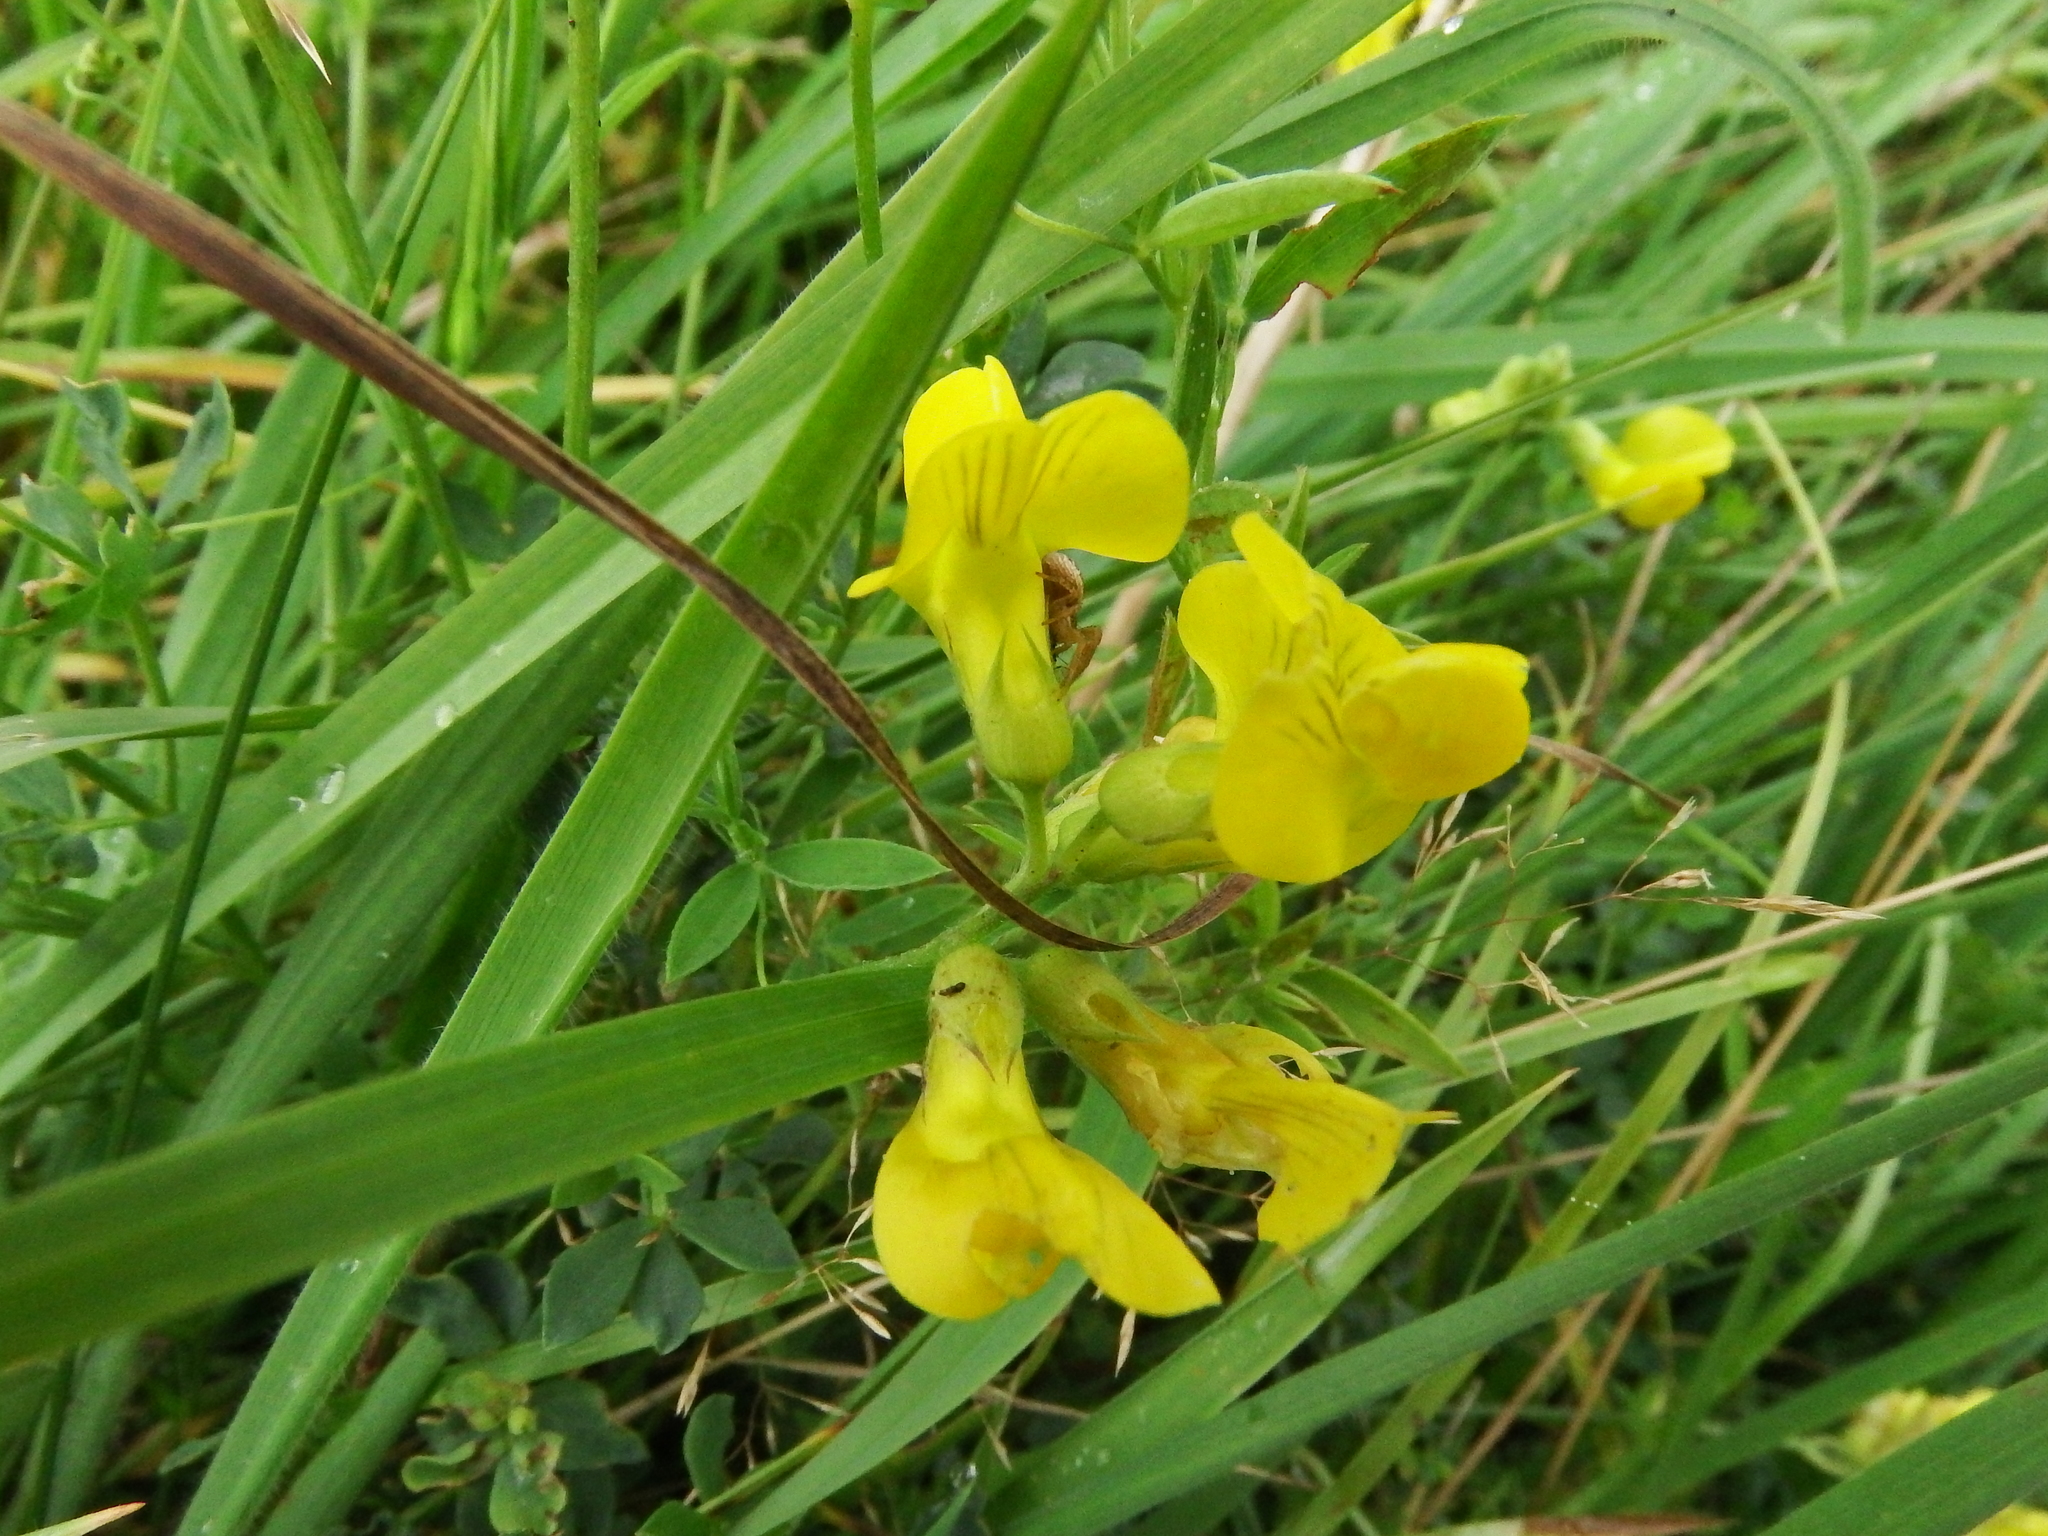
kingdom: Plantae
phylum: Tracheophyta
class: Magnoliopsida
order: Fabales
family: Fabaceae
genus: Lathyrus
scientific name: Lathyrus pratensis
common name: Meadow vetchling
